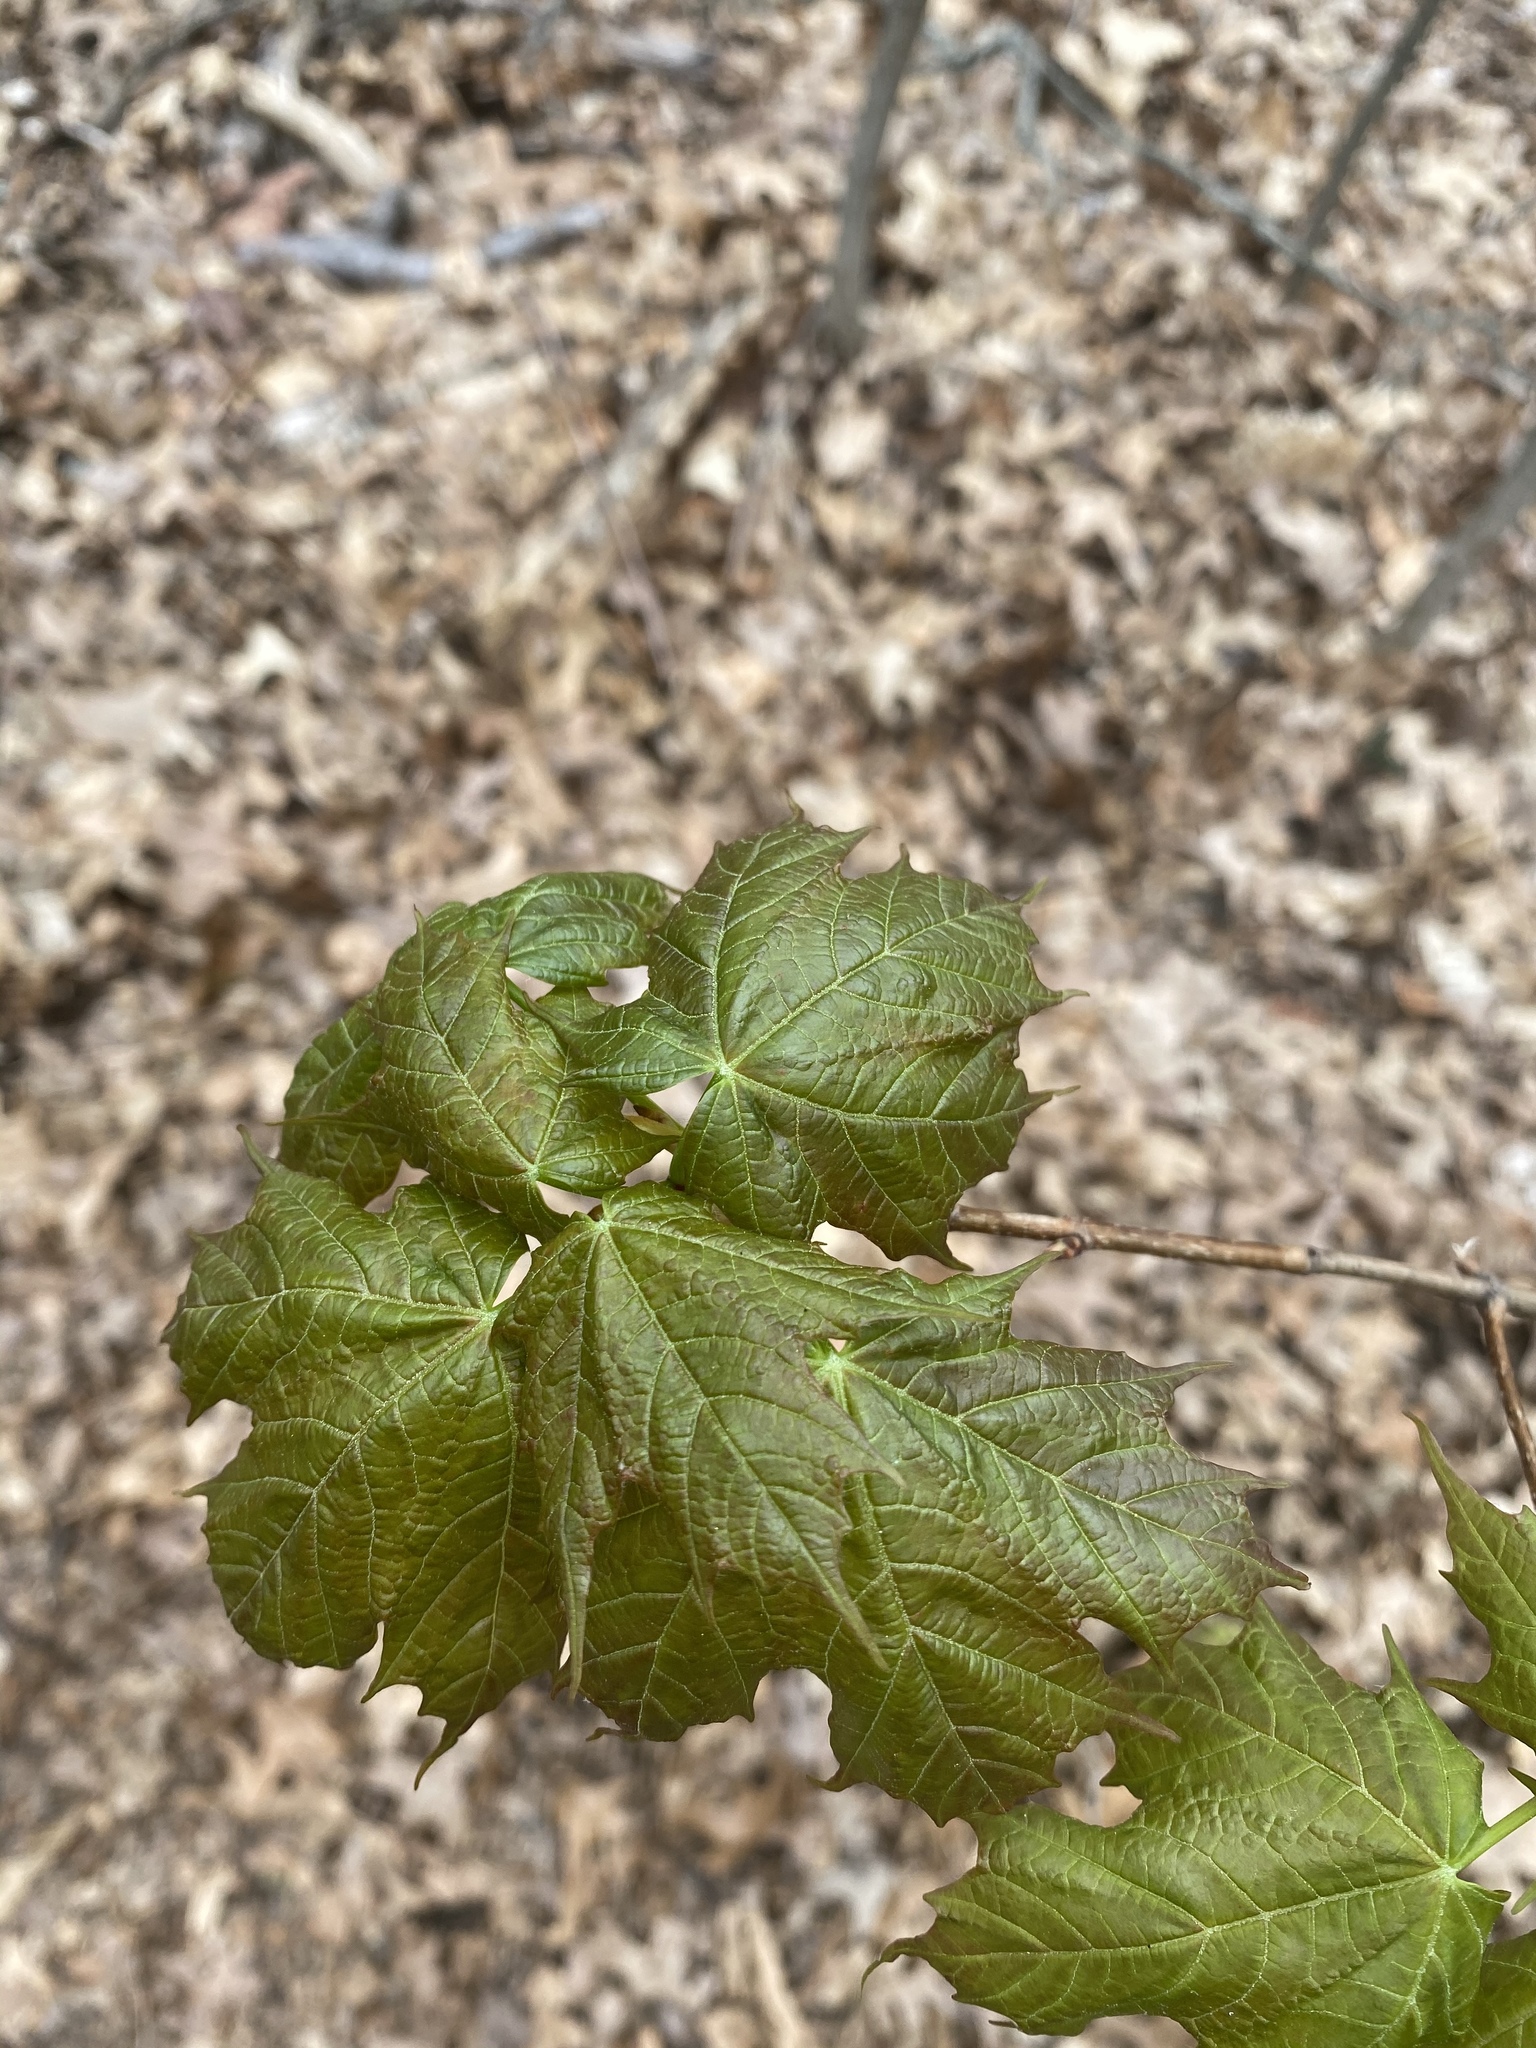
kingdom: Plantae
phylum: Tracheophyta
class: Magnoliopsida
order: Sapindales
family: Sapindaceae
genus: Acer
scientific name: Acer platanoides
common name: Norway maple
